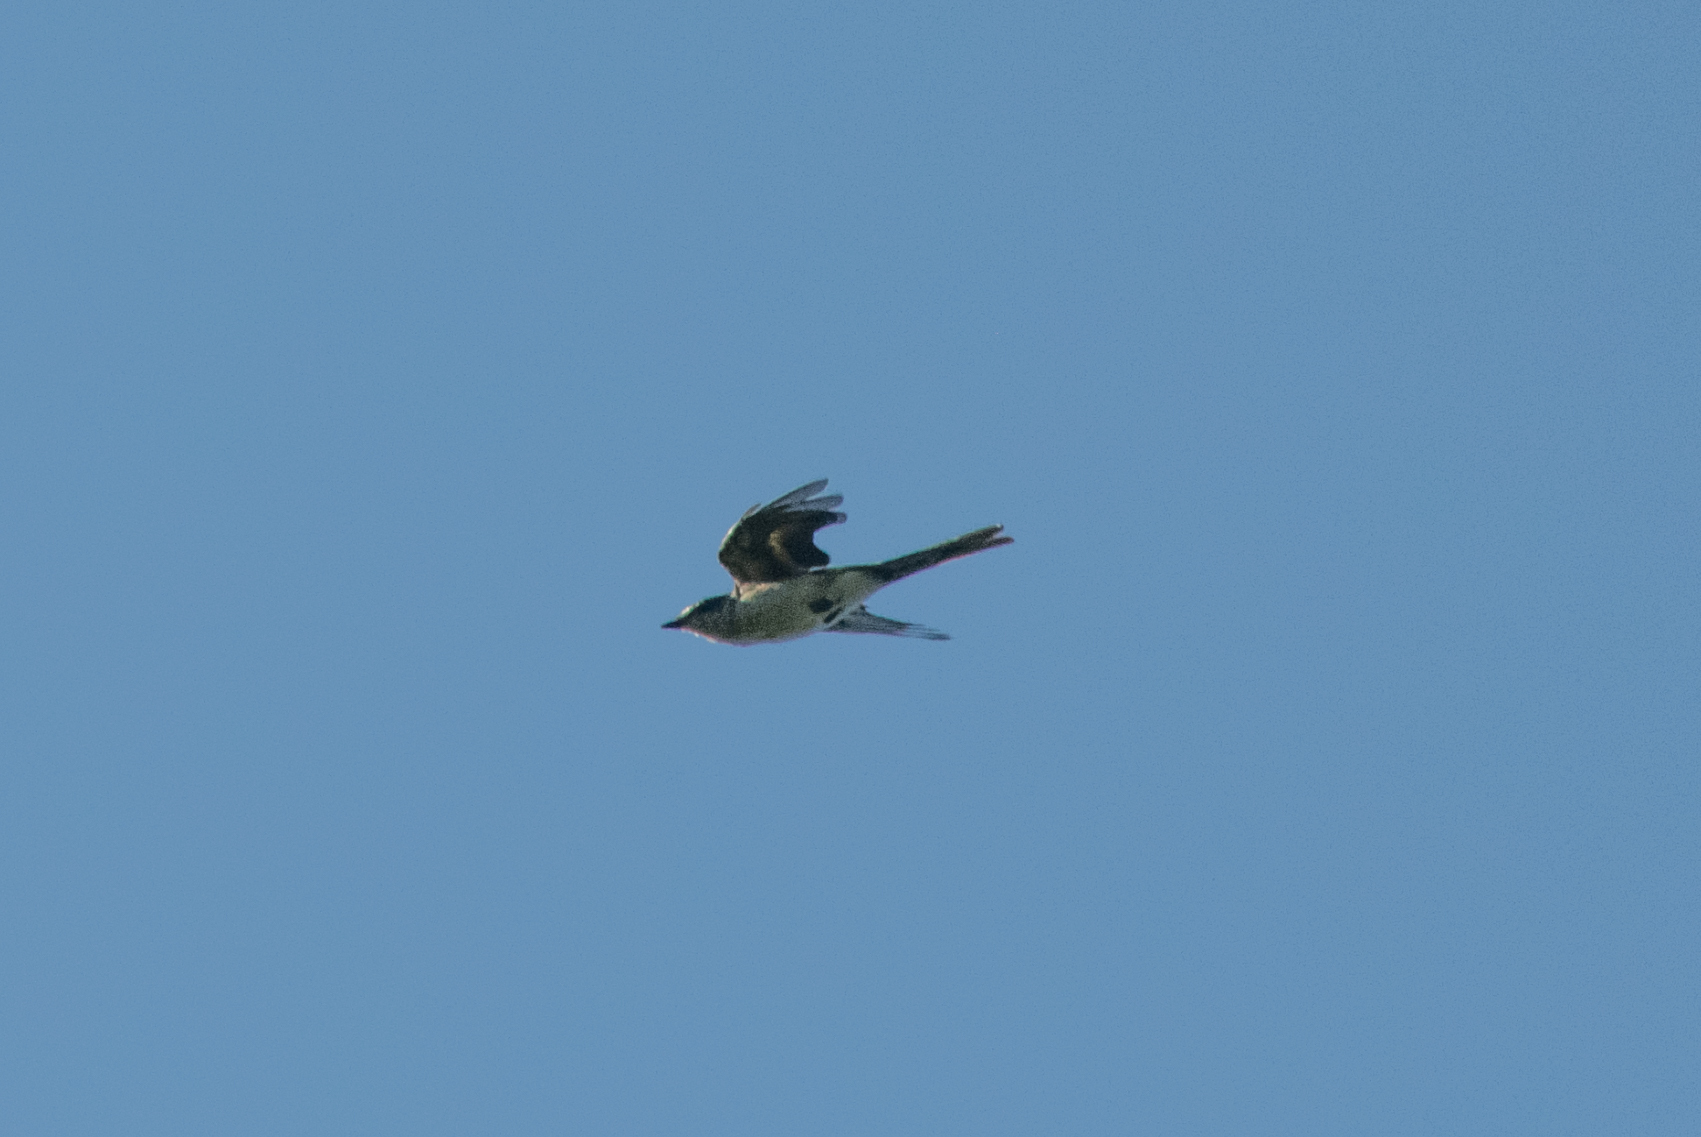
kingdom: Animalia
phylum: Chordata
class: Aves
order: Passeriformes
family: Campephagidae
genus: Pericrocotus
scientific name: Pericrocotus divaricatus
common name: Ashy minivet
